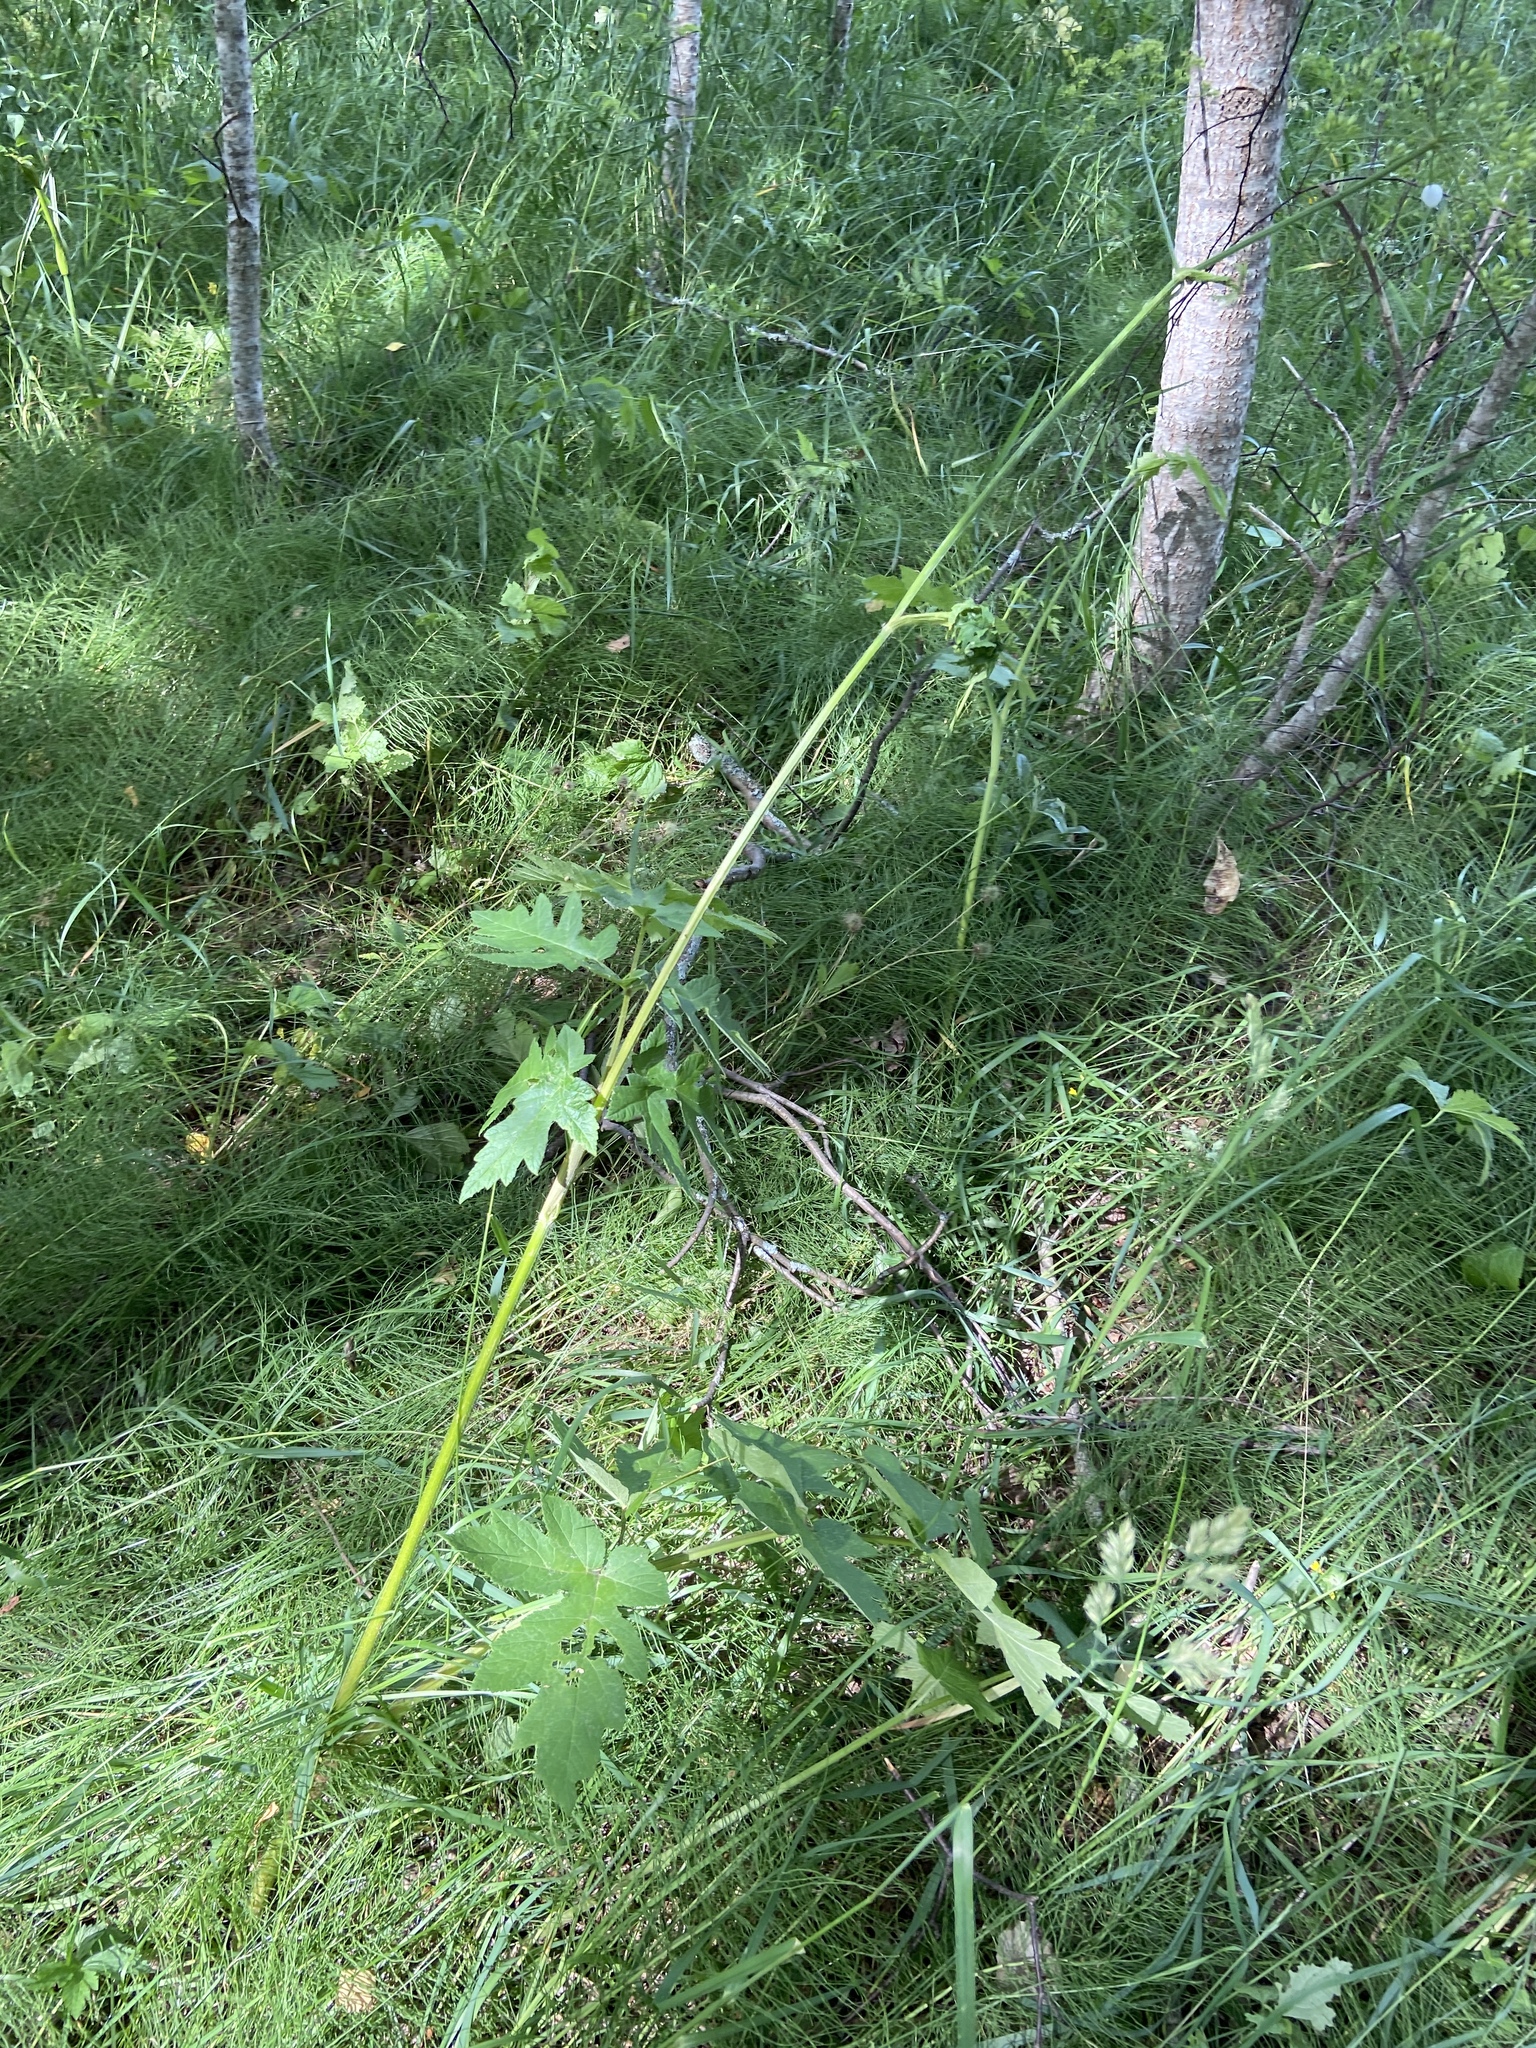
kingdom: Plantae
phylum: Tracheophyta
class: Magnoliopsida
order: Apiales
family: Apiaceae
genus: Heracleum
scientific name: Heracleum sphondylium
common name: Hogweed
